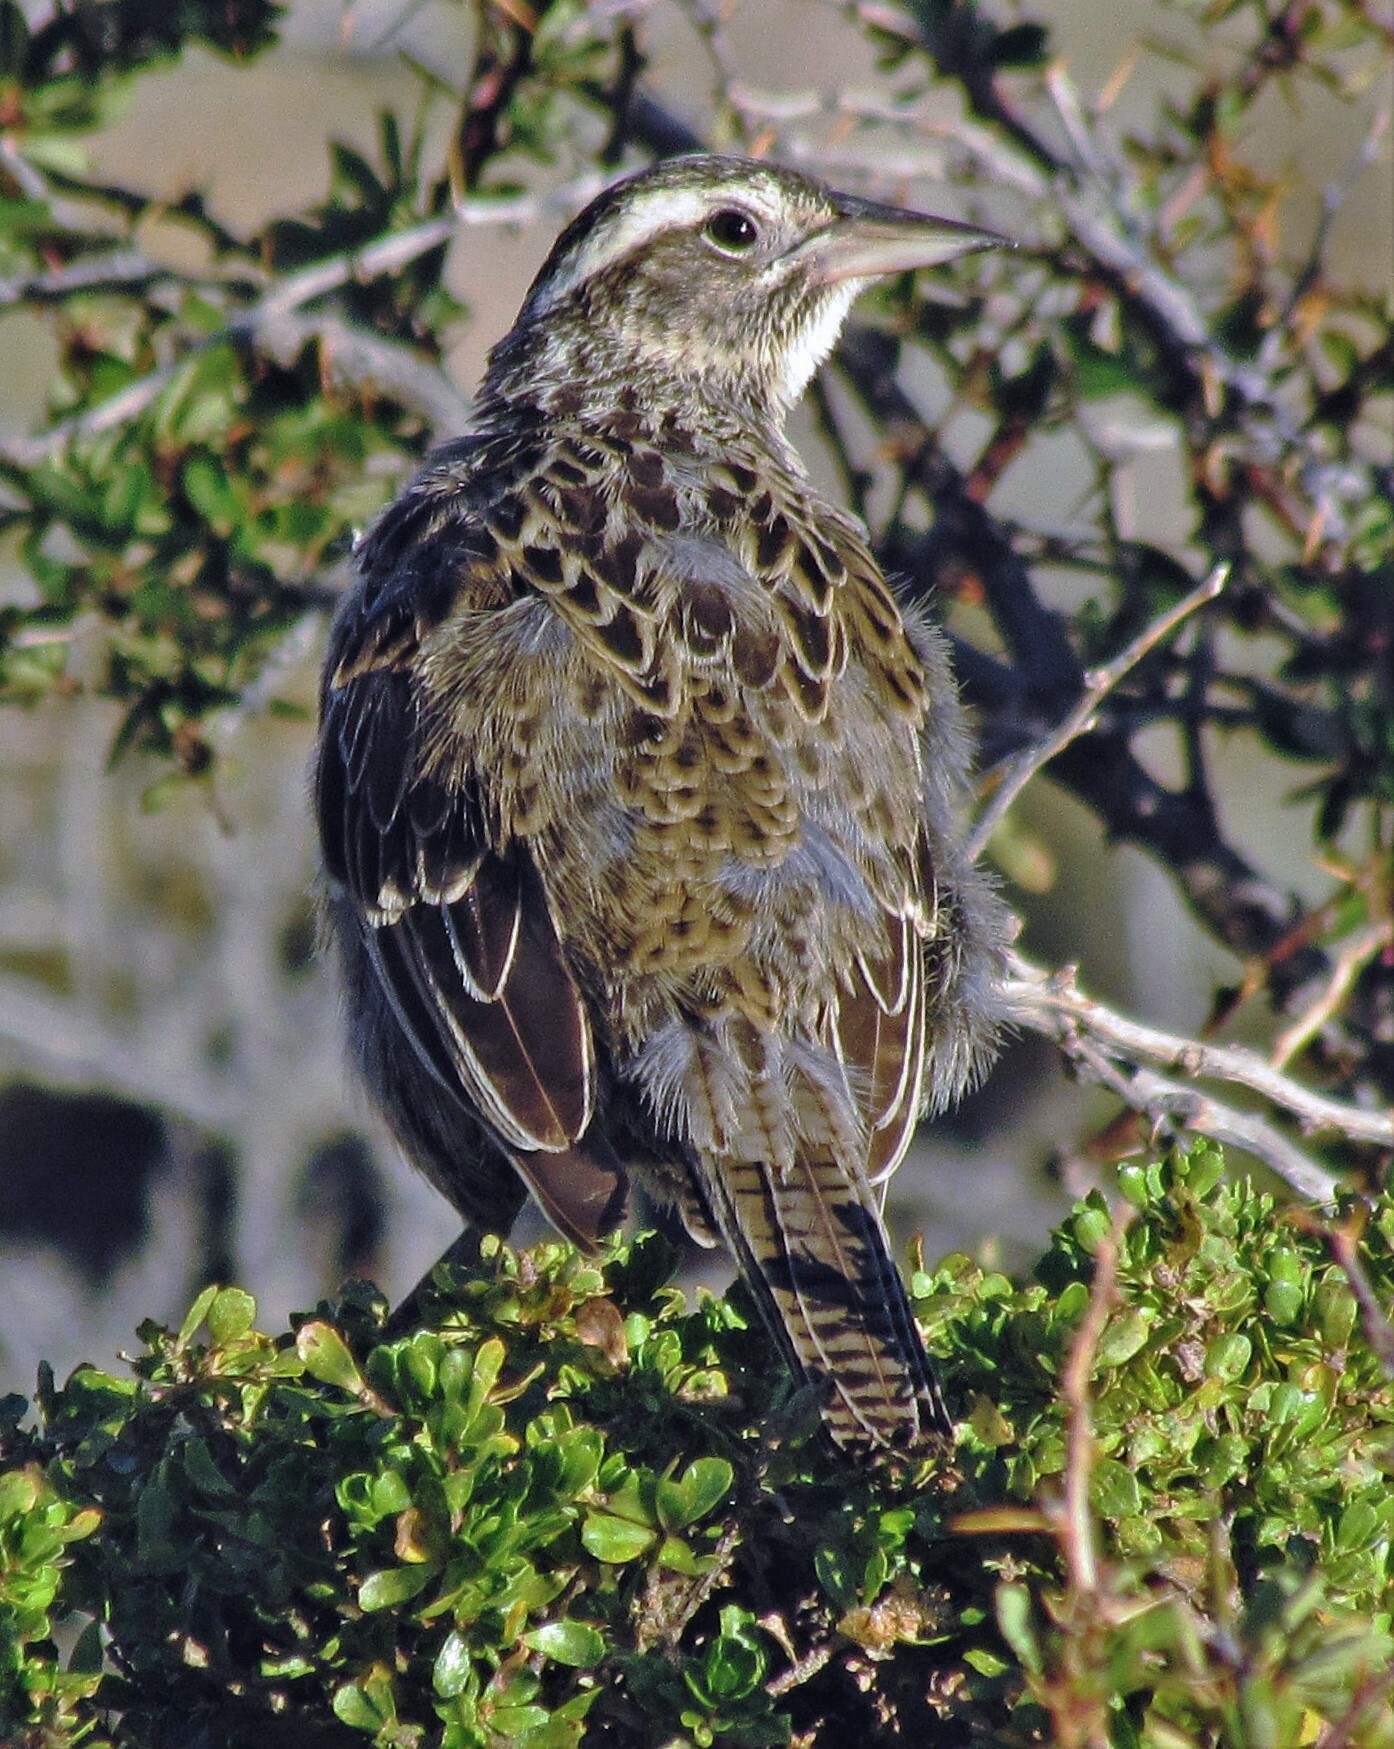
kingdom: Animalia
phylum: Chordata
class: Aves
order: Passeriformes
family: Icteridae
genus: Sturnella
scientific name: Sturnella loyca
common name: Long-tailed meadowlark
